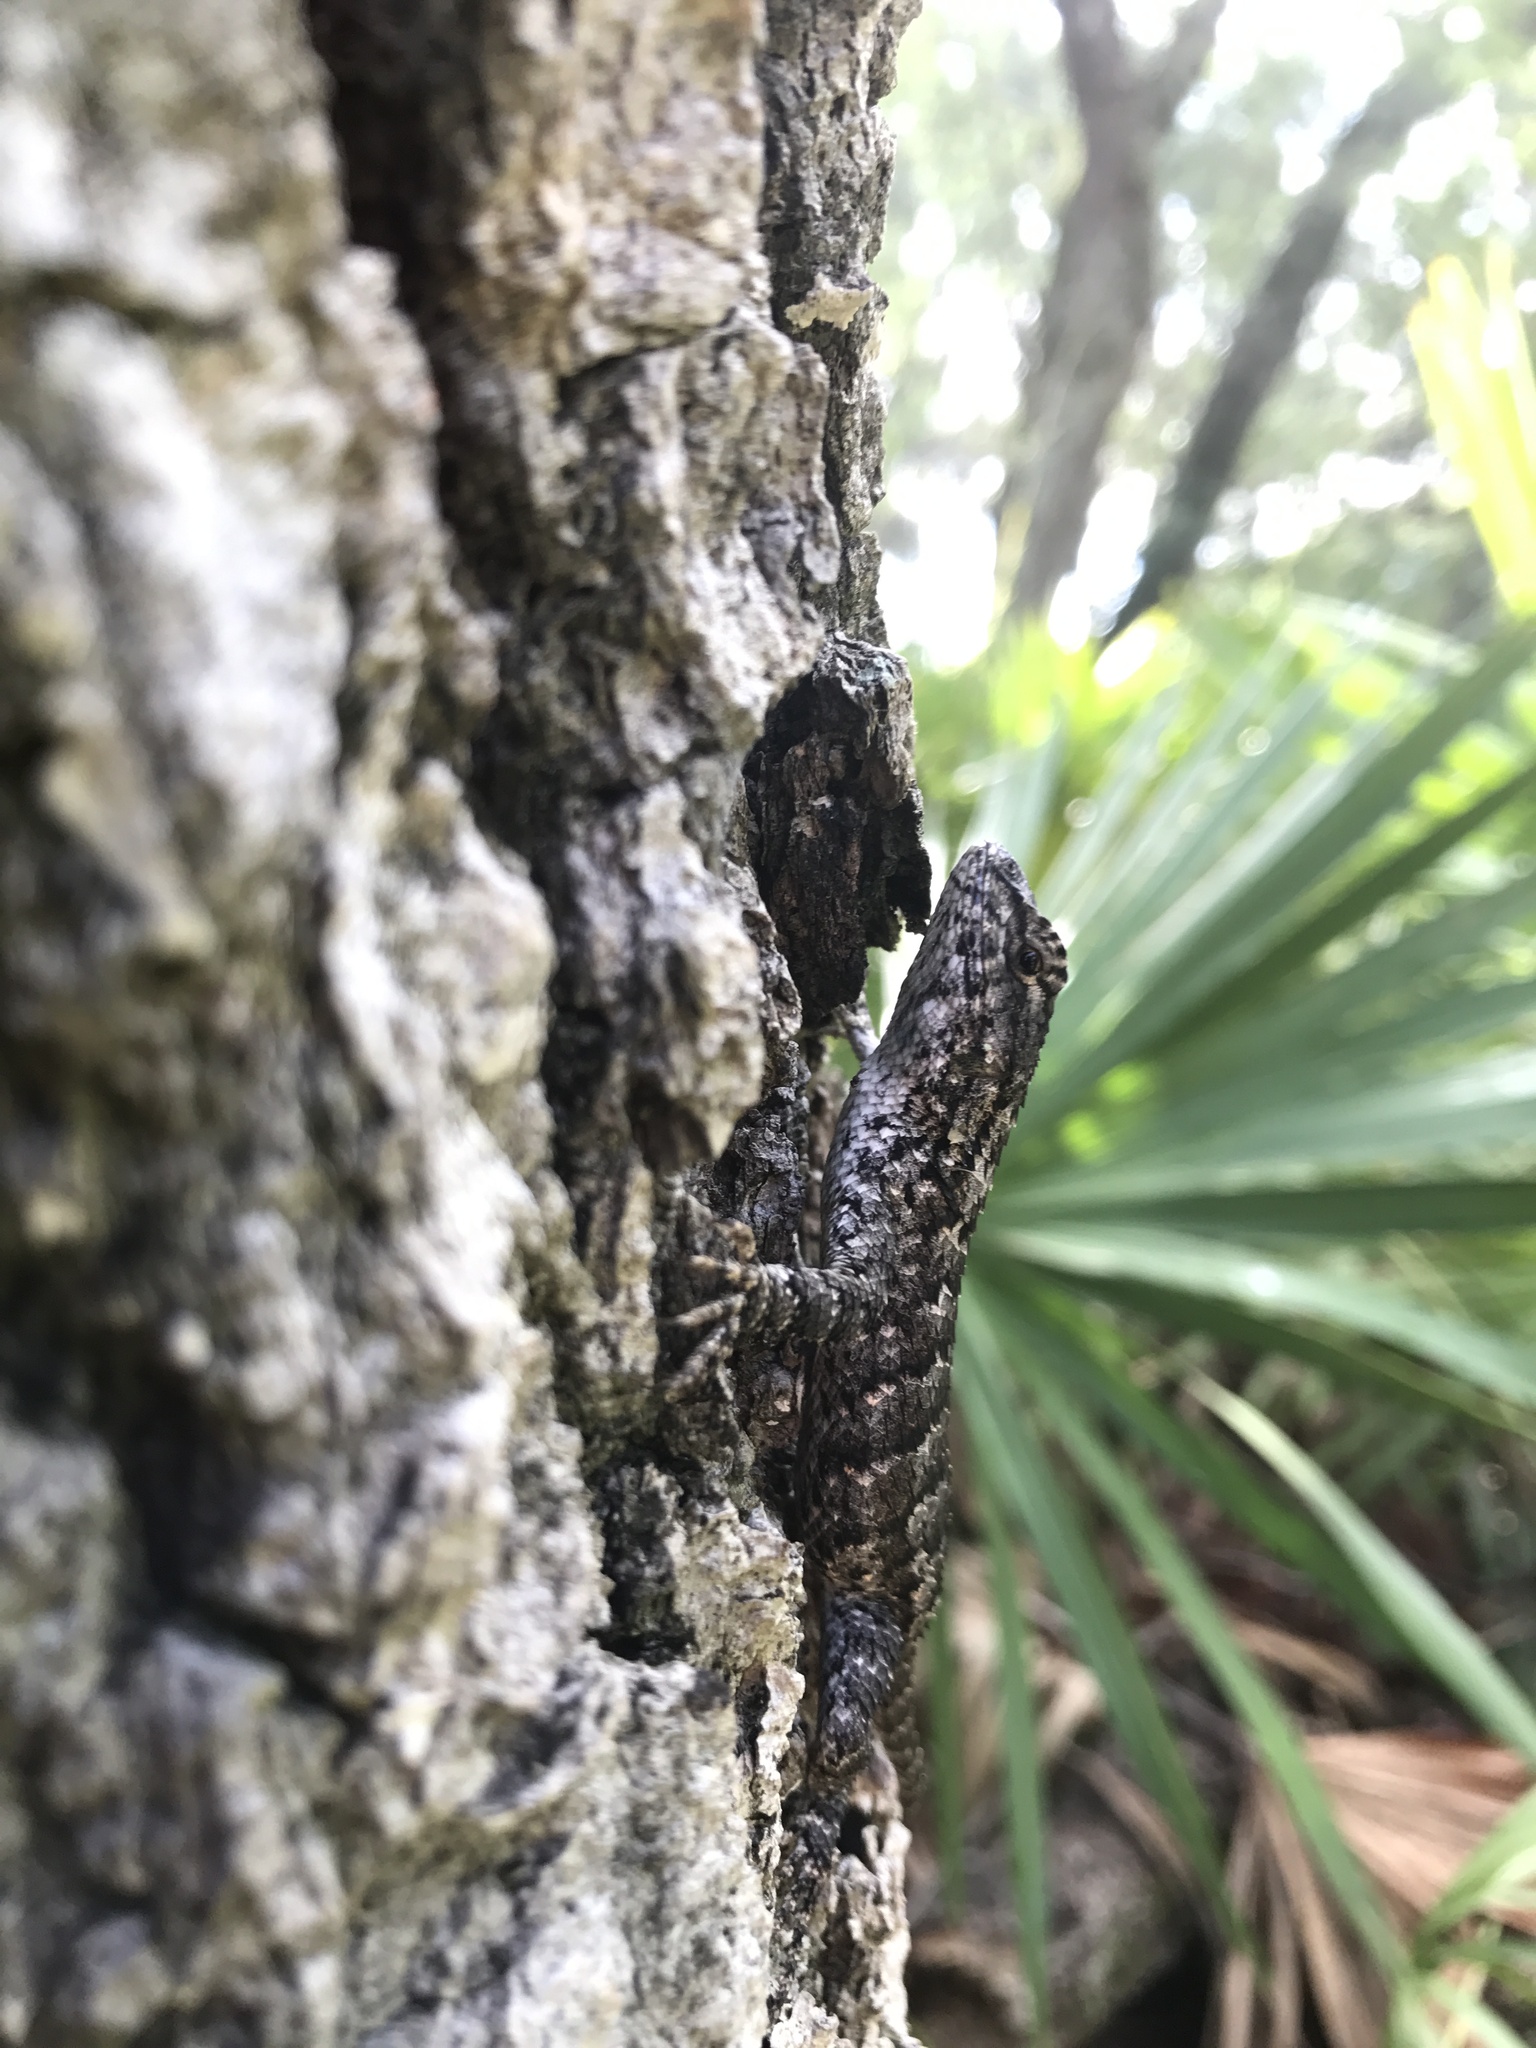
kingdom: Animalia
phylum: Chordata
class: Squamata
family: Phrynosomatidae
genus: Sceloporus
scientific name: Sceloporus undulatus
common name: Eastern fence lizard
